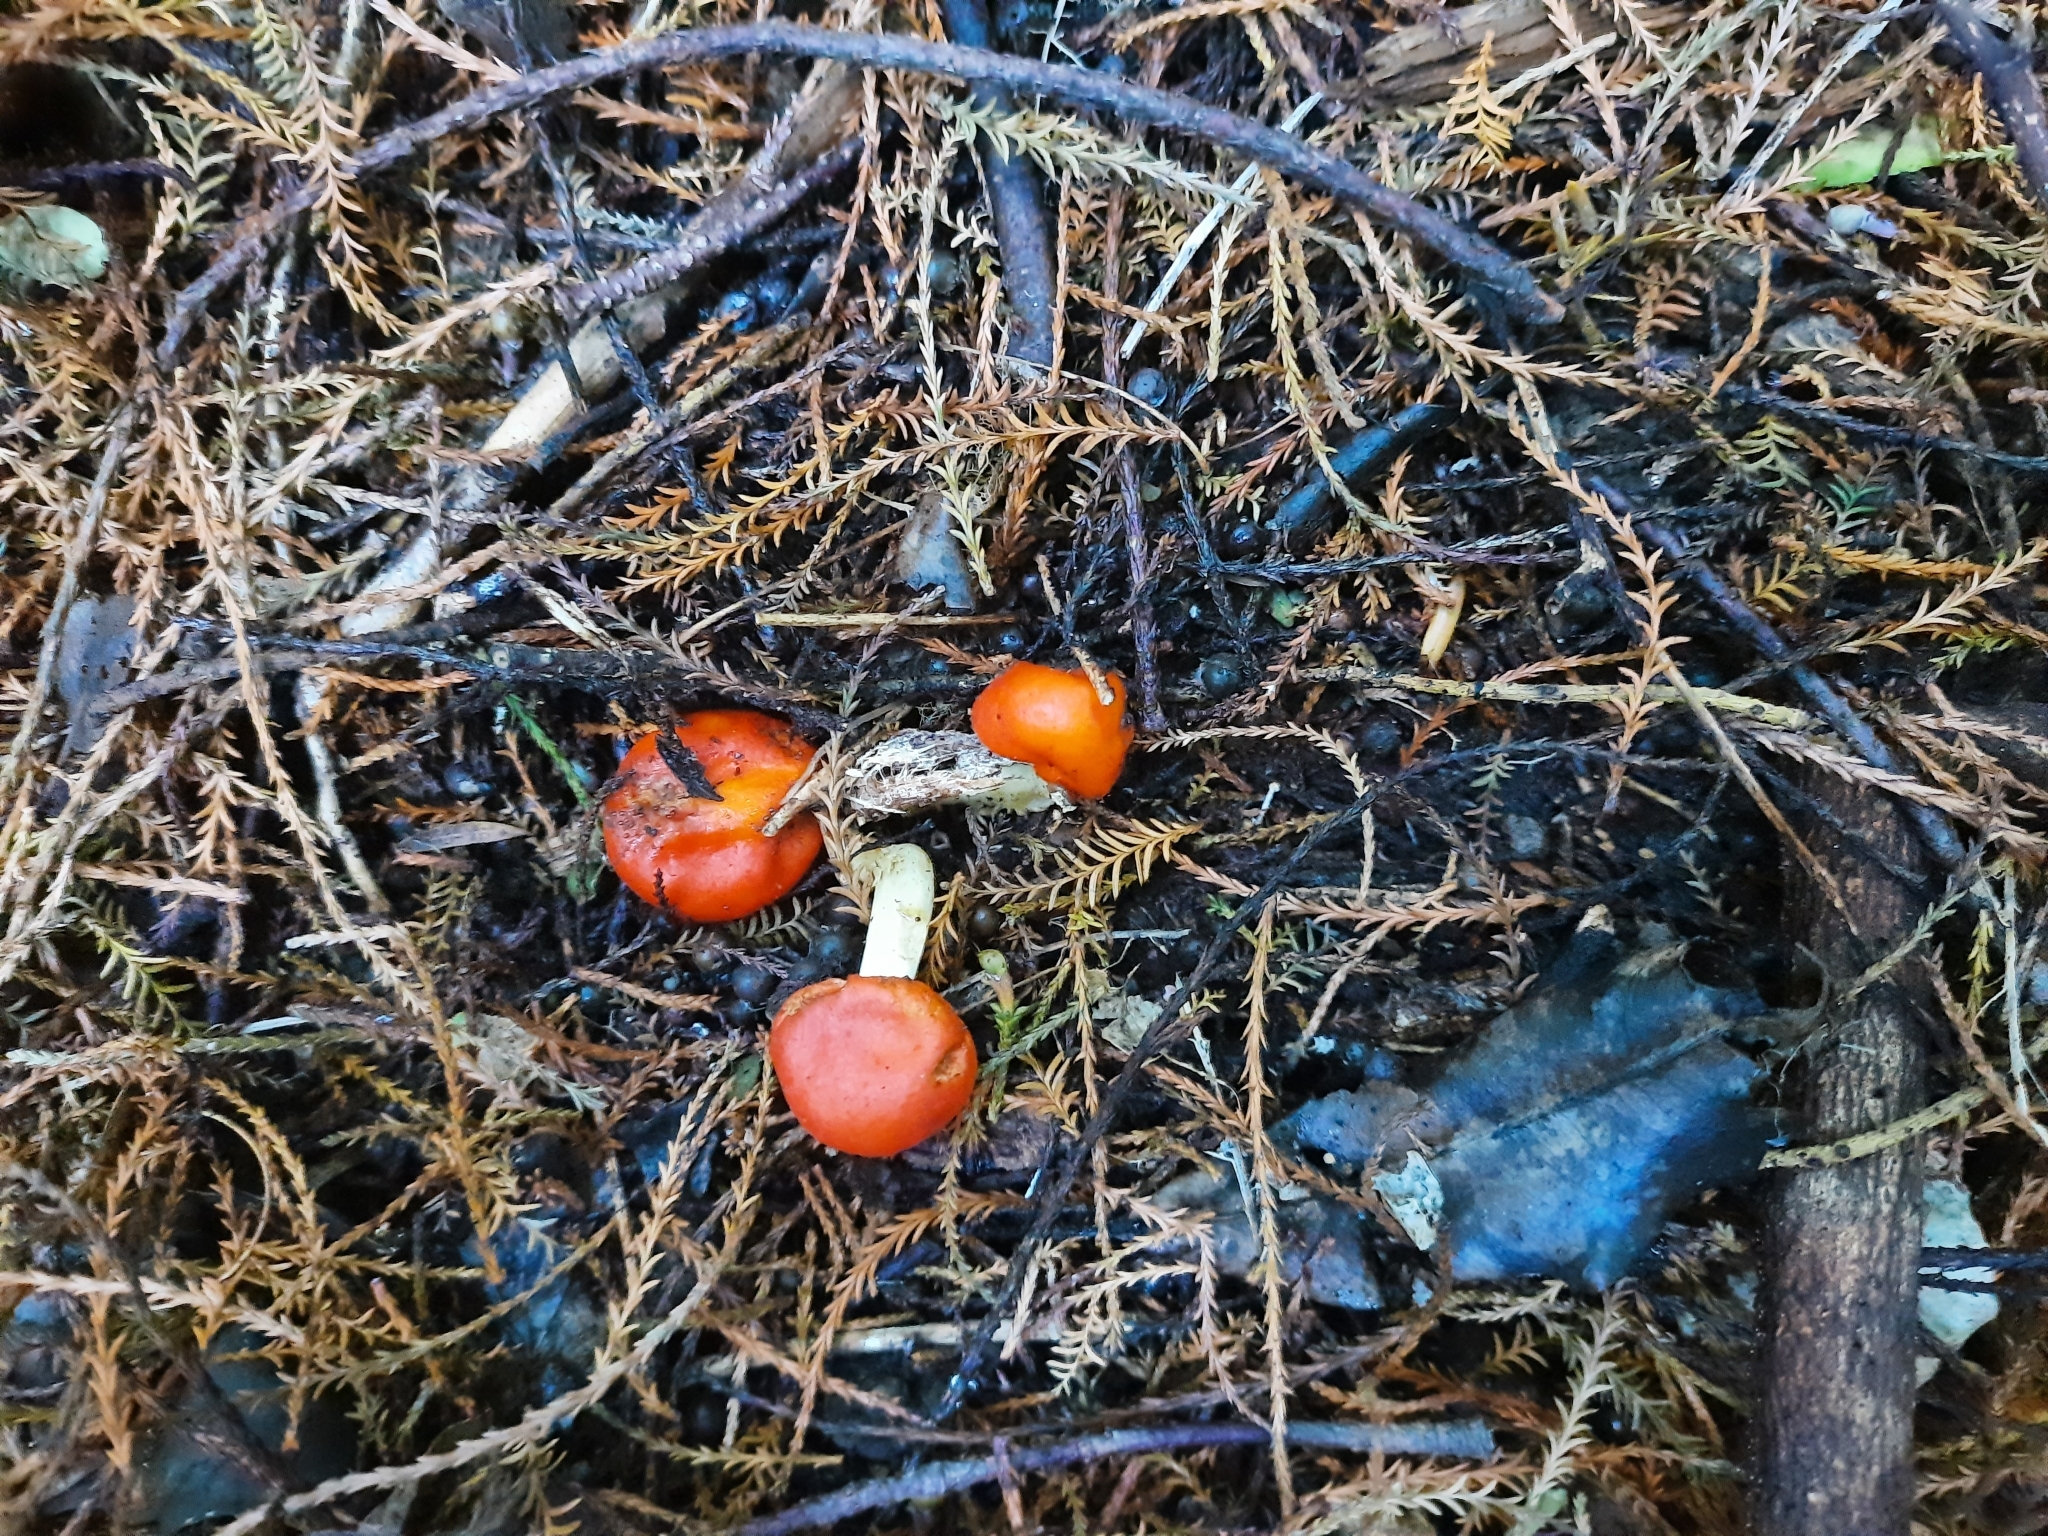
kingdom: Fungi
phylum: Basidiomycota
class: Agaricomycetes
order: Agaricales
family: Strophariaceae
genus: Leratiomyces
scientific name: Leratiomyces erythrocephalus
